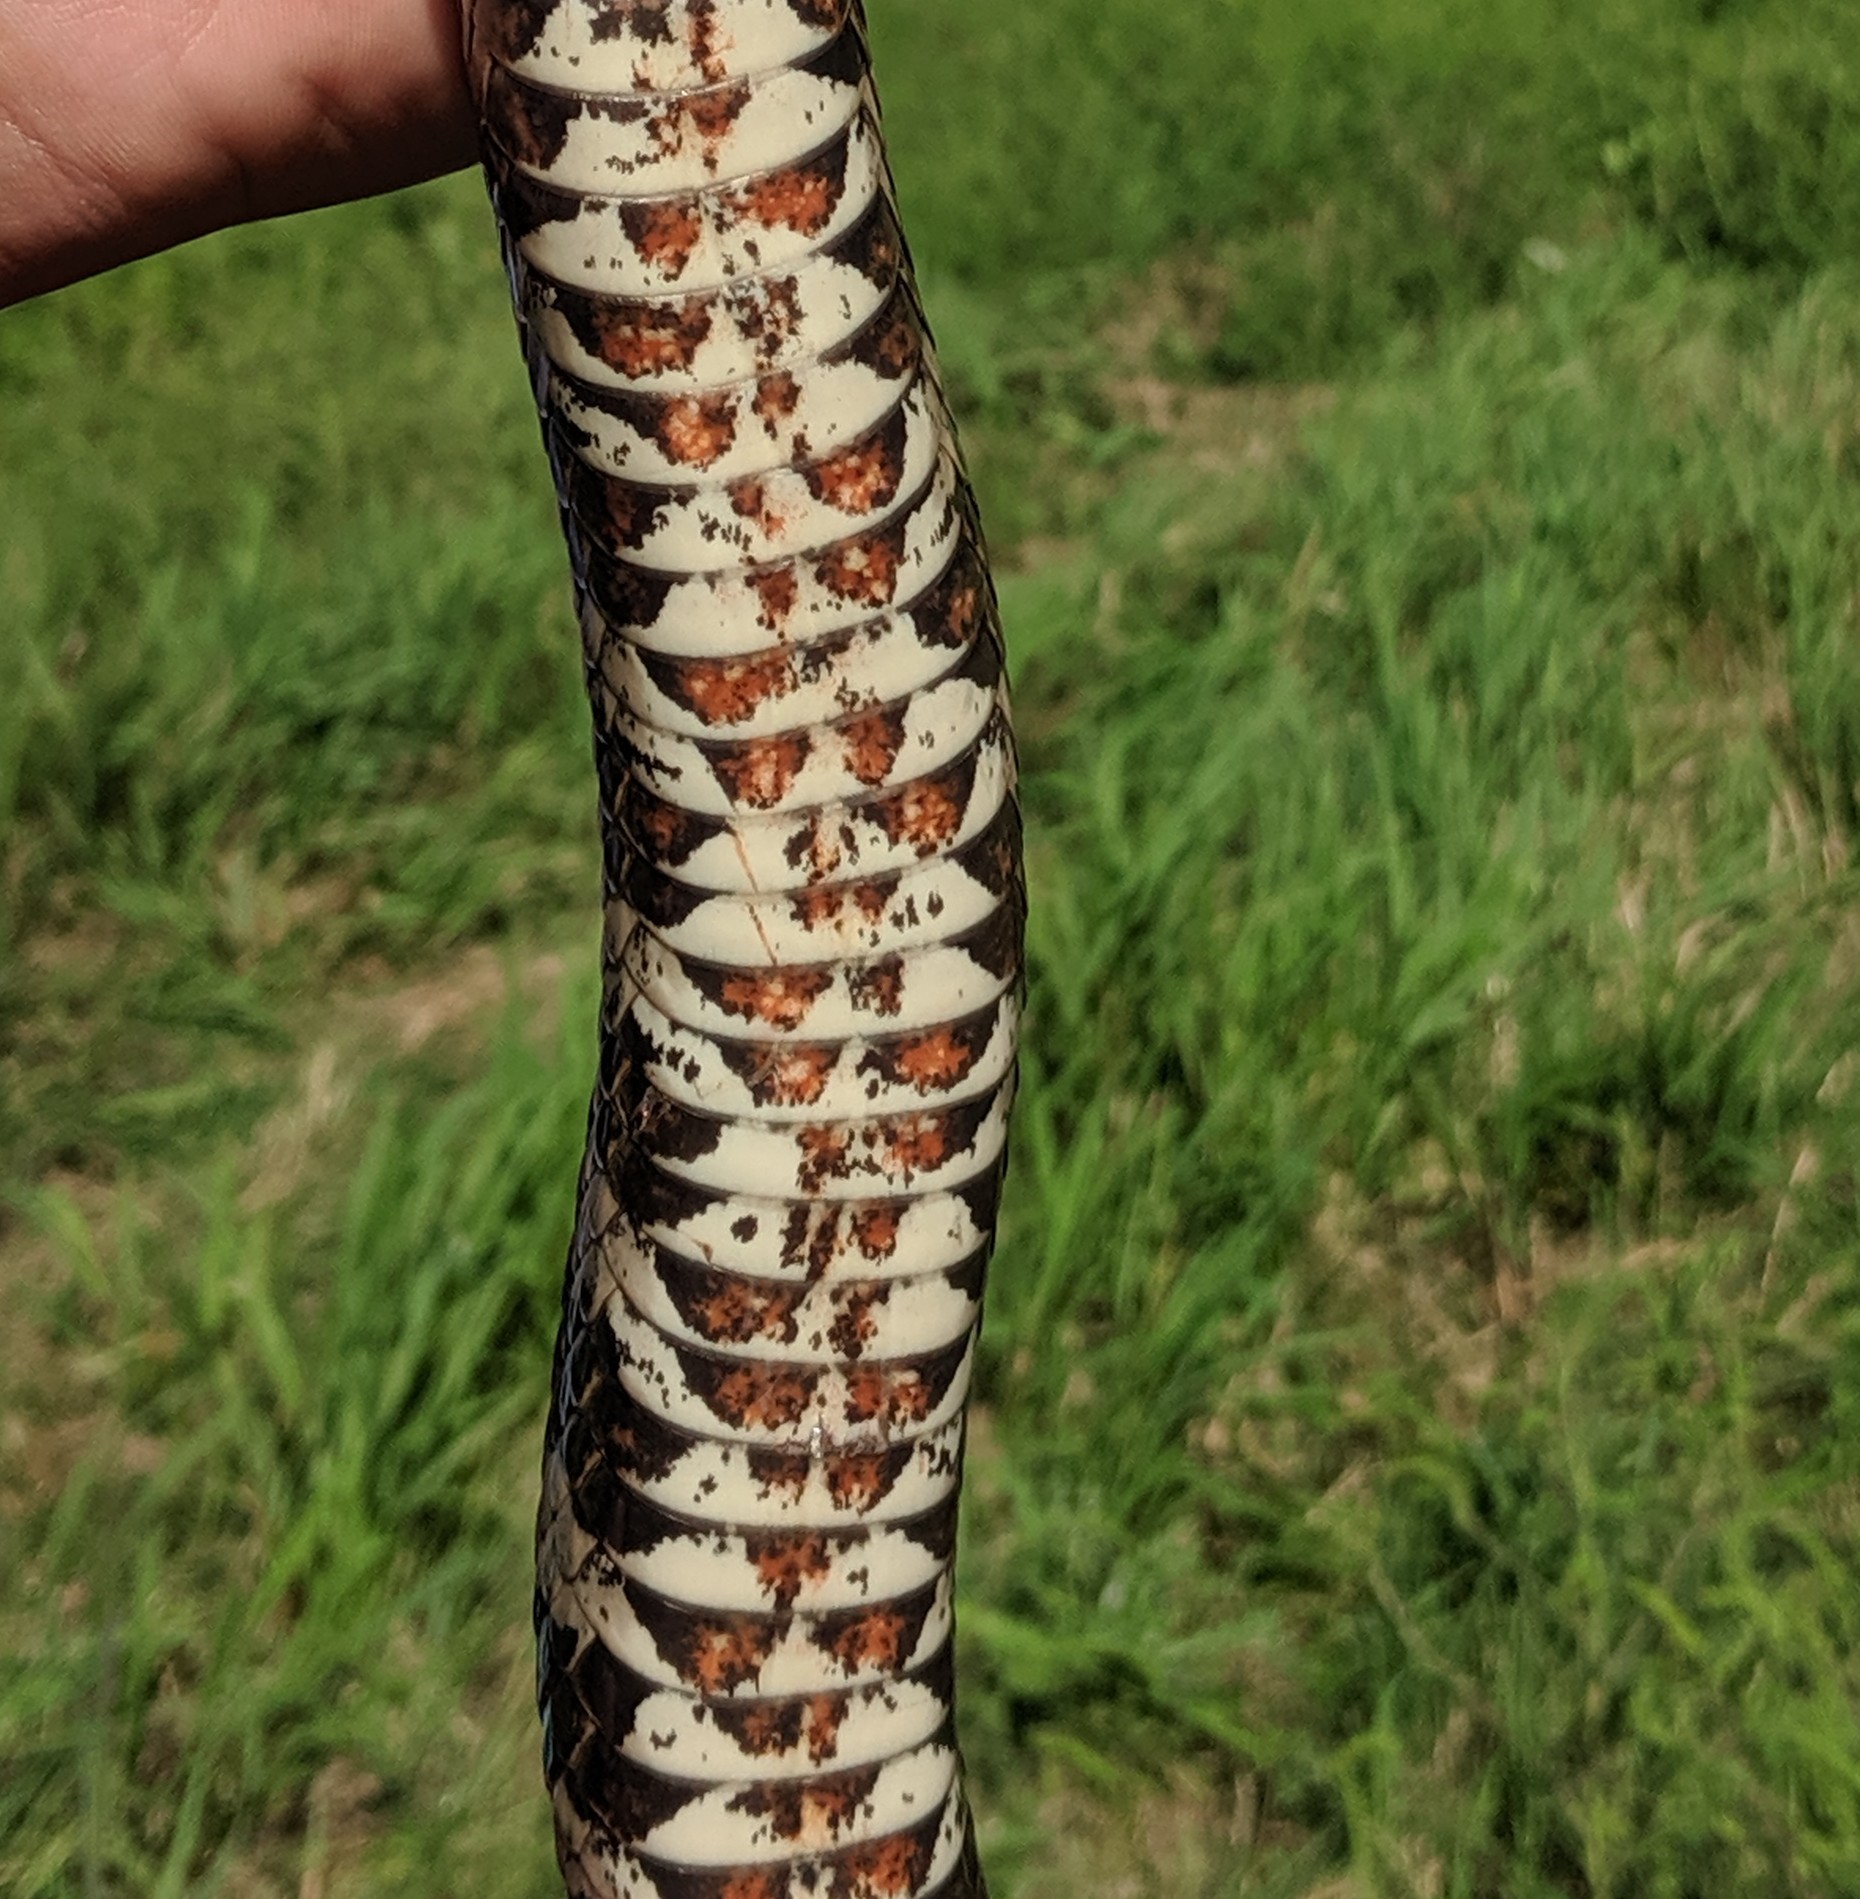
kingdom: Animalia
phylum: Chordata
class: Squamata
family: Colubridae
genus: Nerodia
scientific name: Nerodia sipedon
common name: Northern water snake
